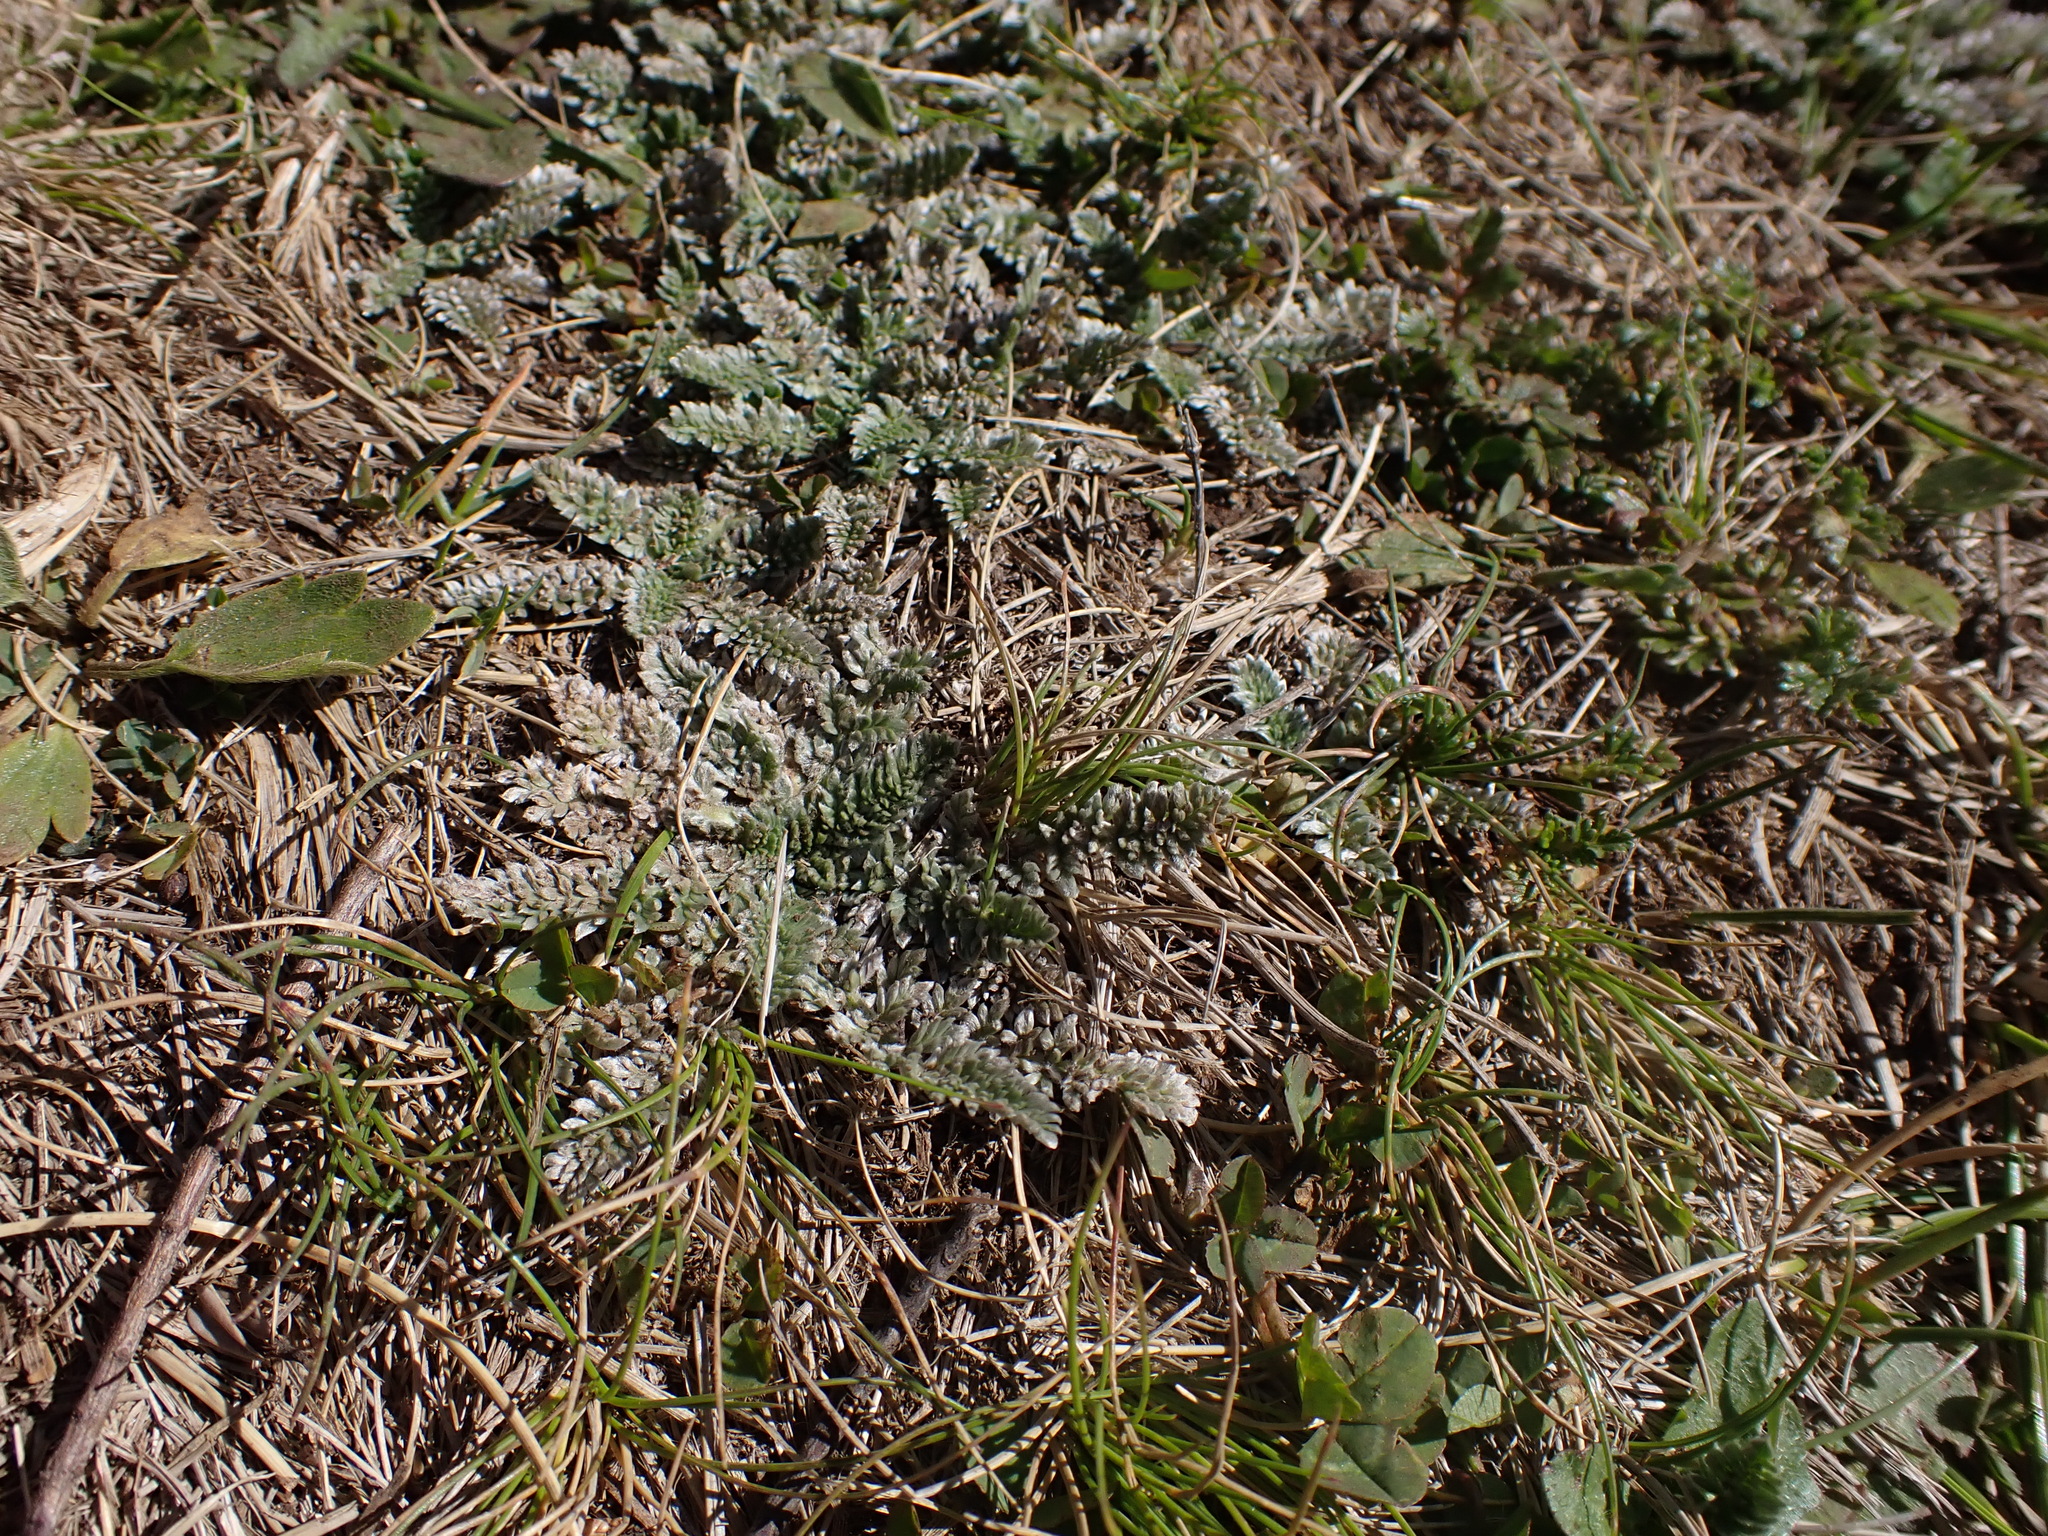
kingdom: Plantae
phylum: Tracheophyta
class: Magnoliopsida
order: Apiales
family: Apiaceae
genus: Chaerophyllum
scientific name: Chaerophyllum argenteum
